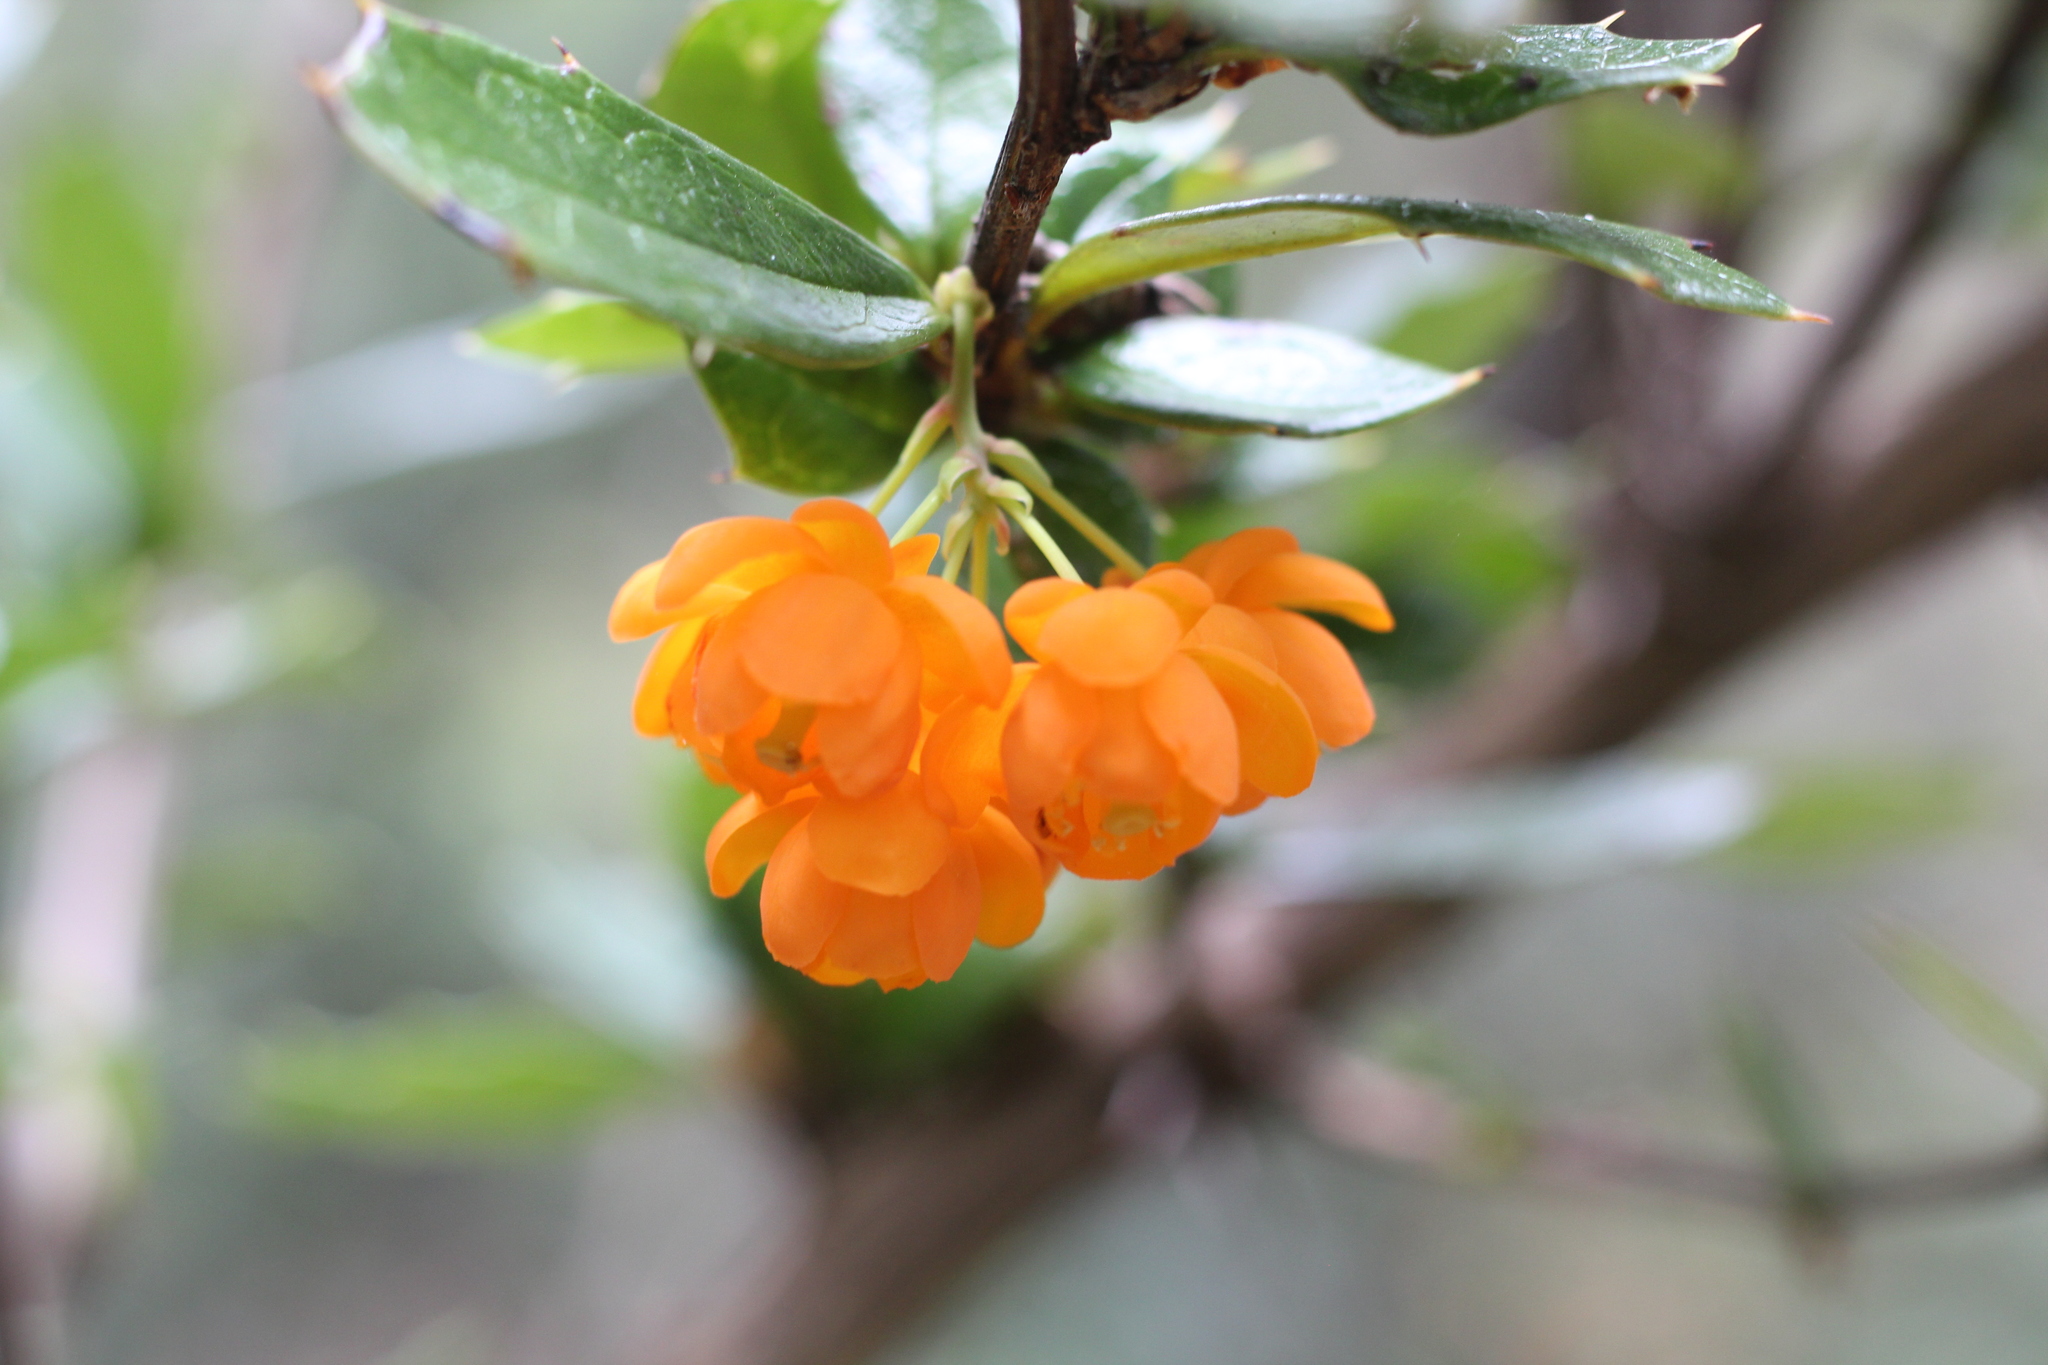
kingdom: Plantae
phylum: Tracheophyta
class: Magnoliopsida
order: Ranunculales
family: Berberidaceae
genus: Berberis
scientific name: Berberis ilicifolia
